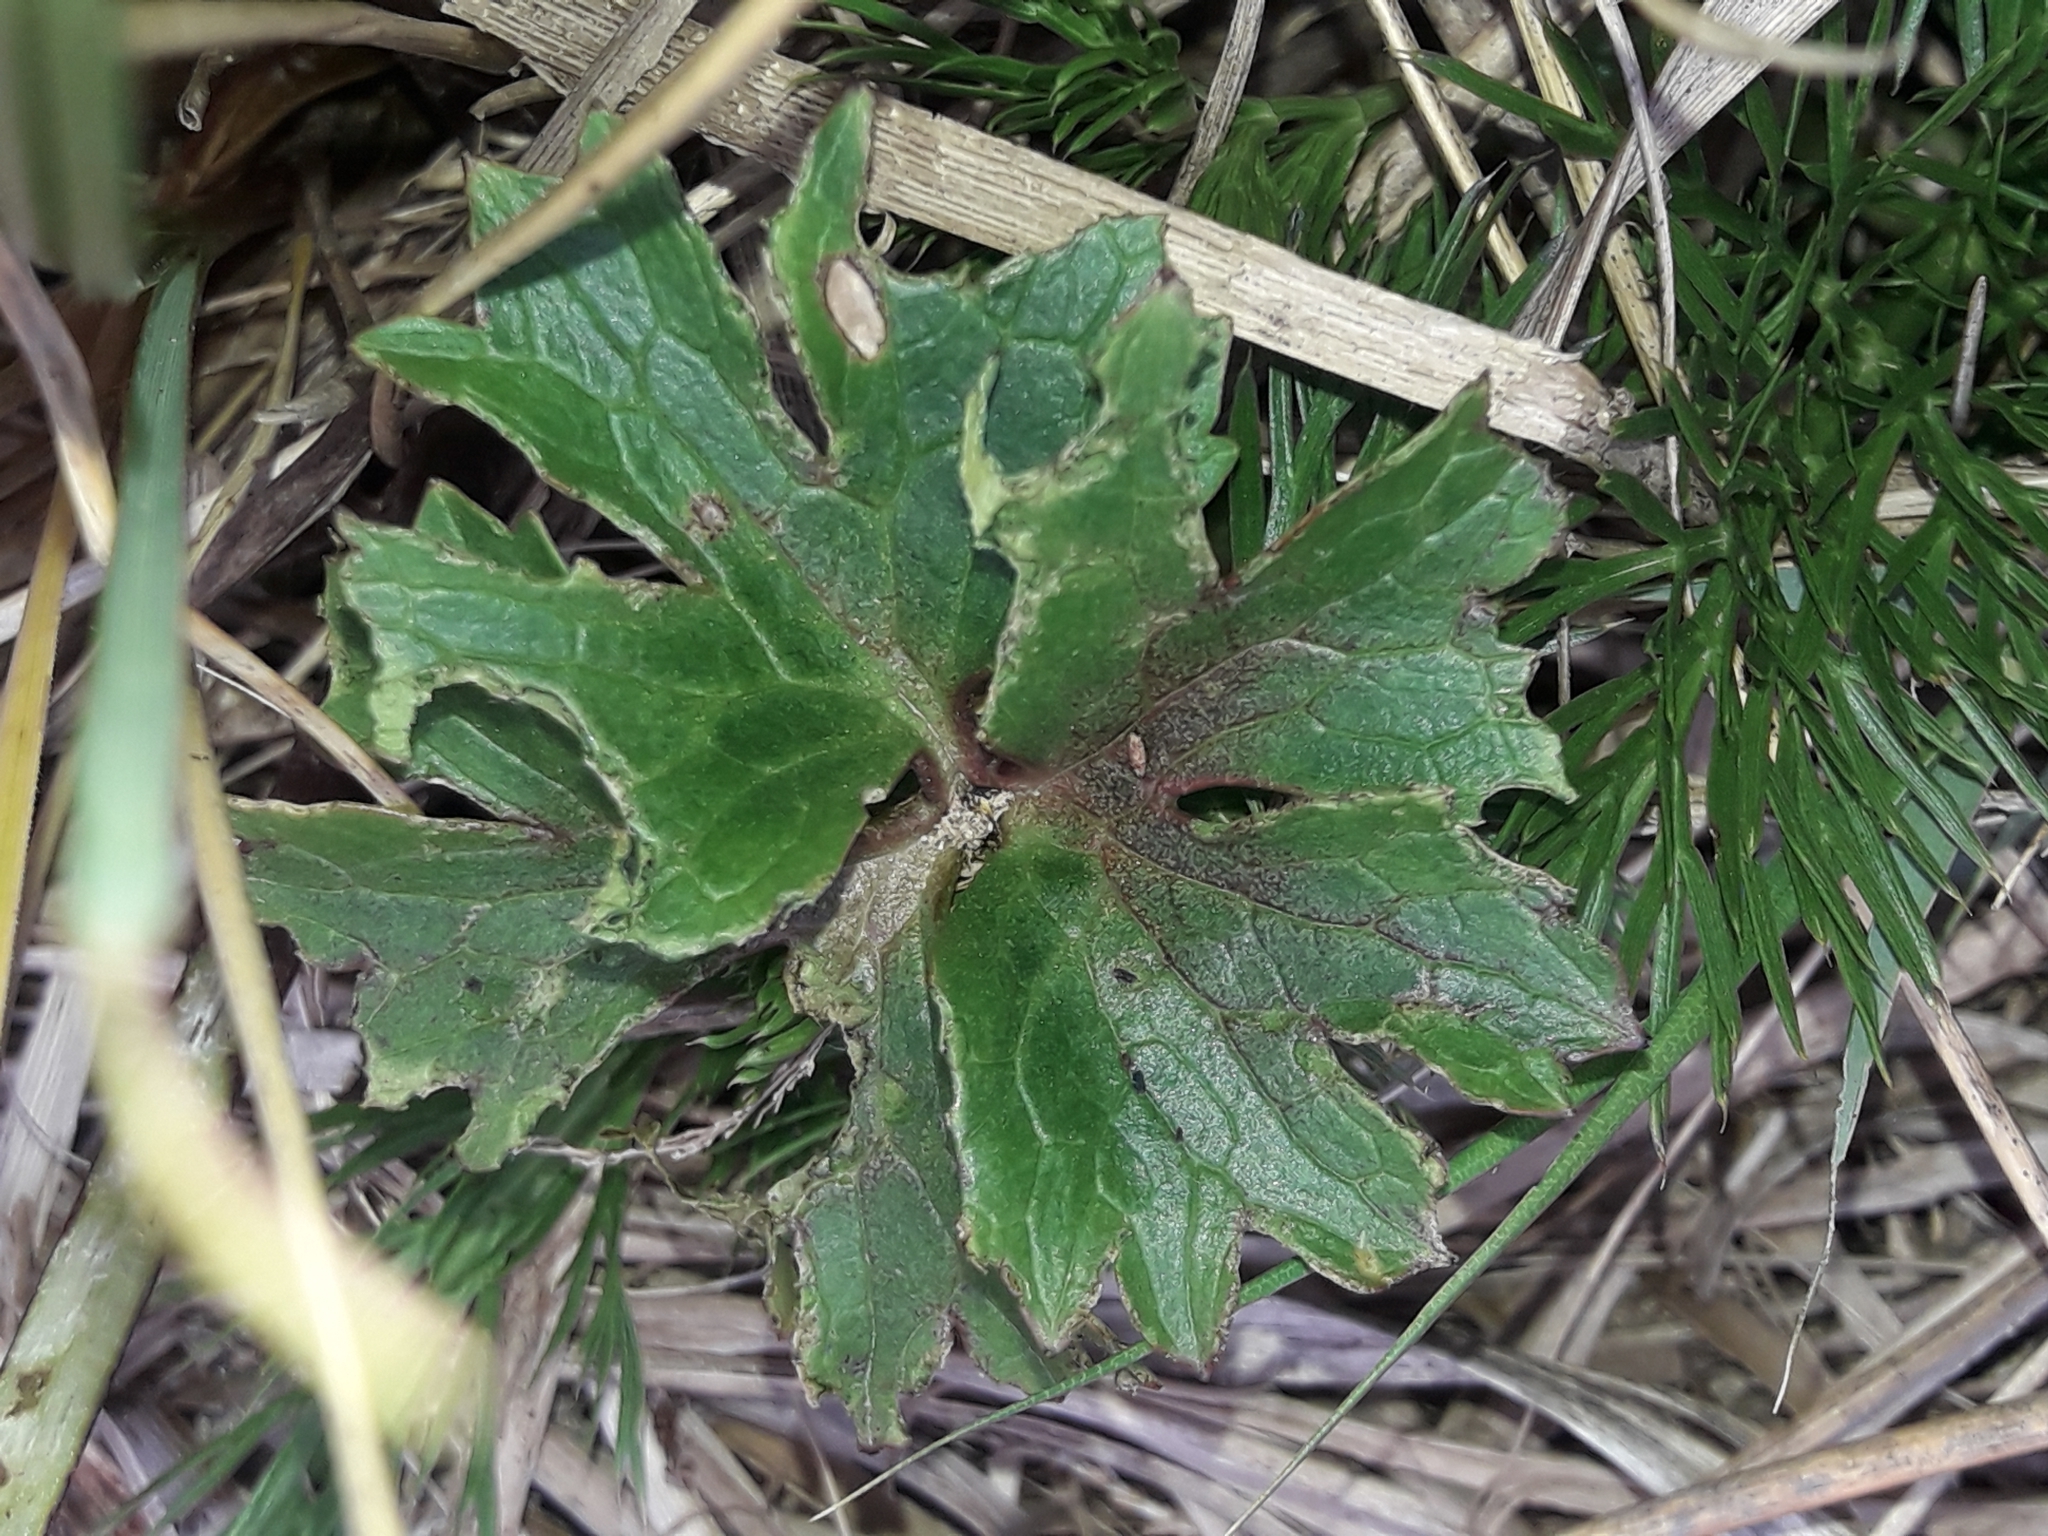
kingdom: Plantae
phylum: Tracheophyta
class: Magnoliopsida
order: Ranunculales
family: Ranunculaceae
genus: Ranunculus
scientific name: Ranunculus verticillatus
